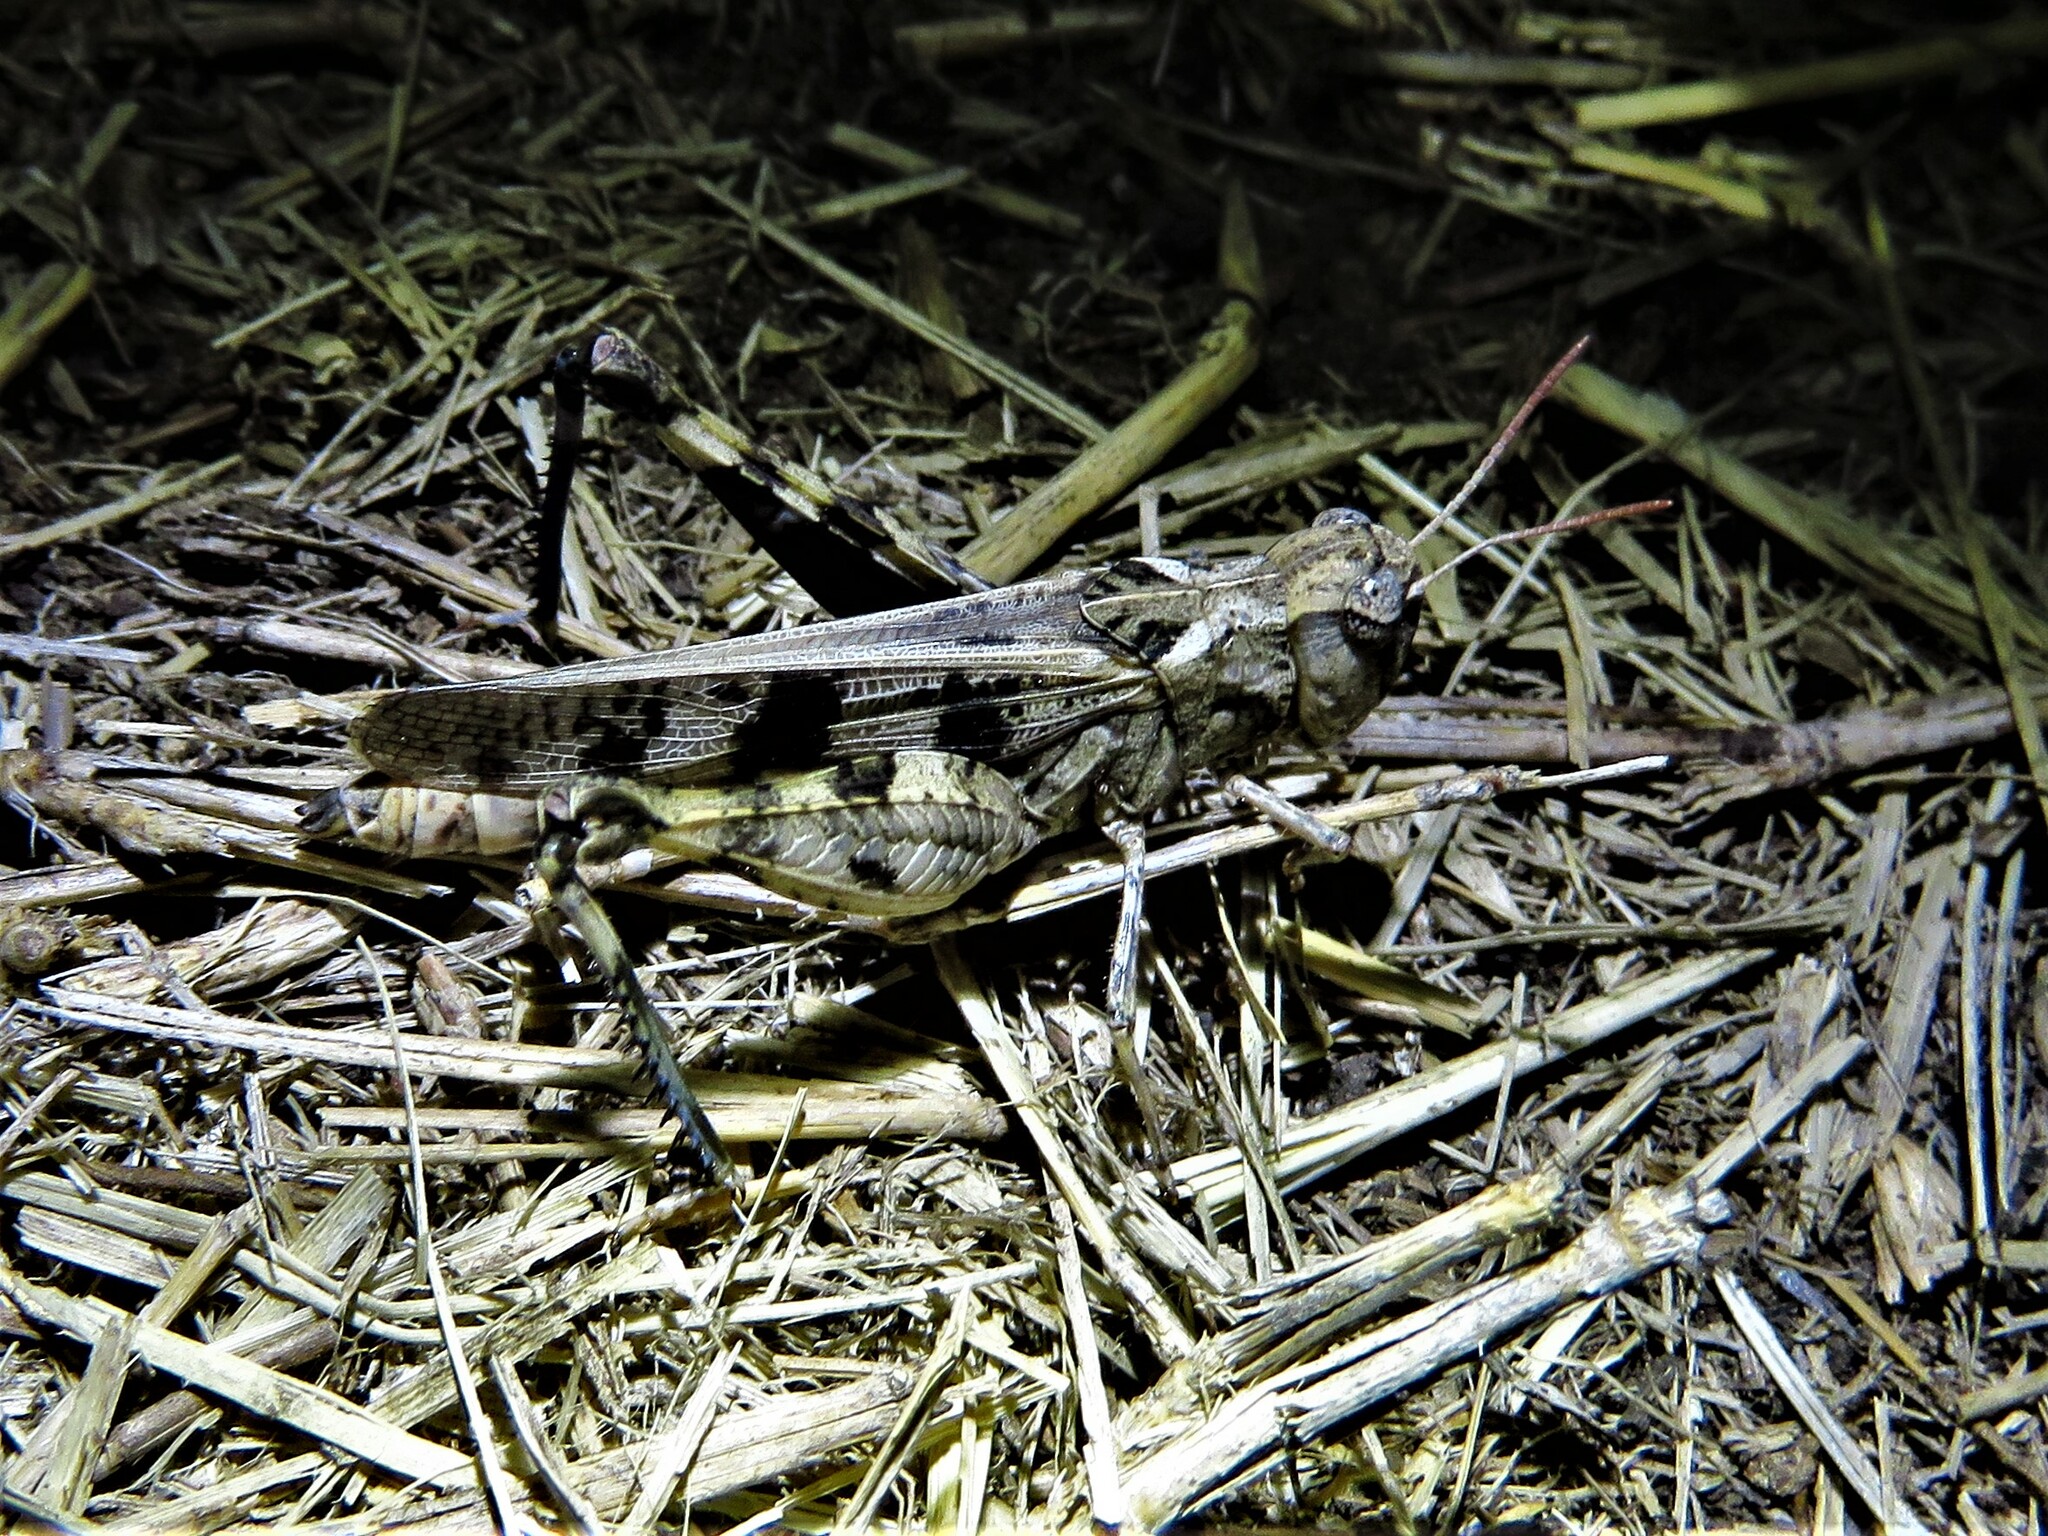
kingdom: Animalia
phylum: Arthropoda
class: Insecta
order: Orthoptera
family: Acrididae
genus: Encoptolophus
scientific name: Encoptolophus costalis
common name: Dusky grasshopper
